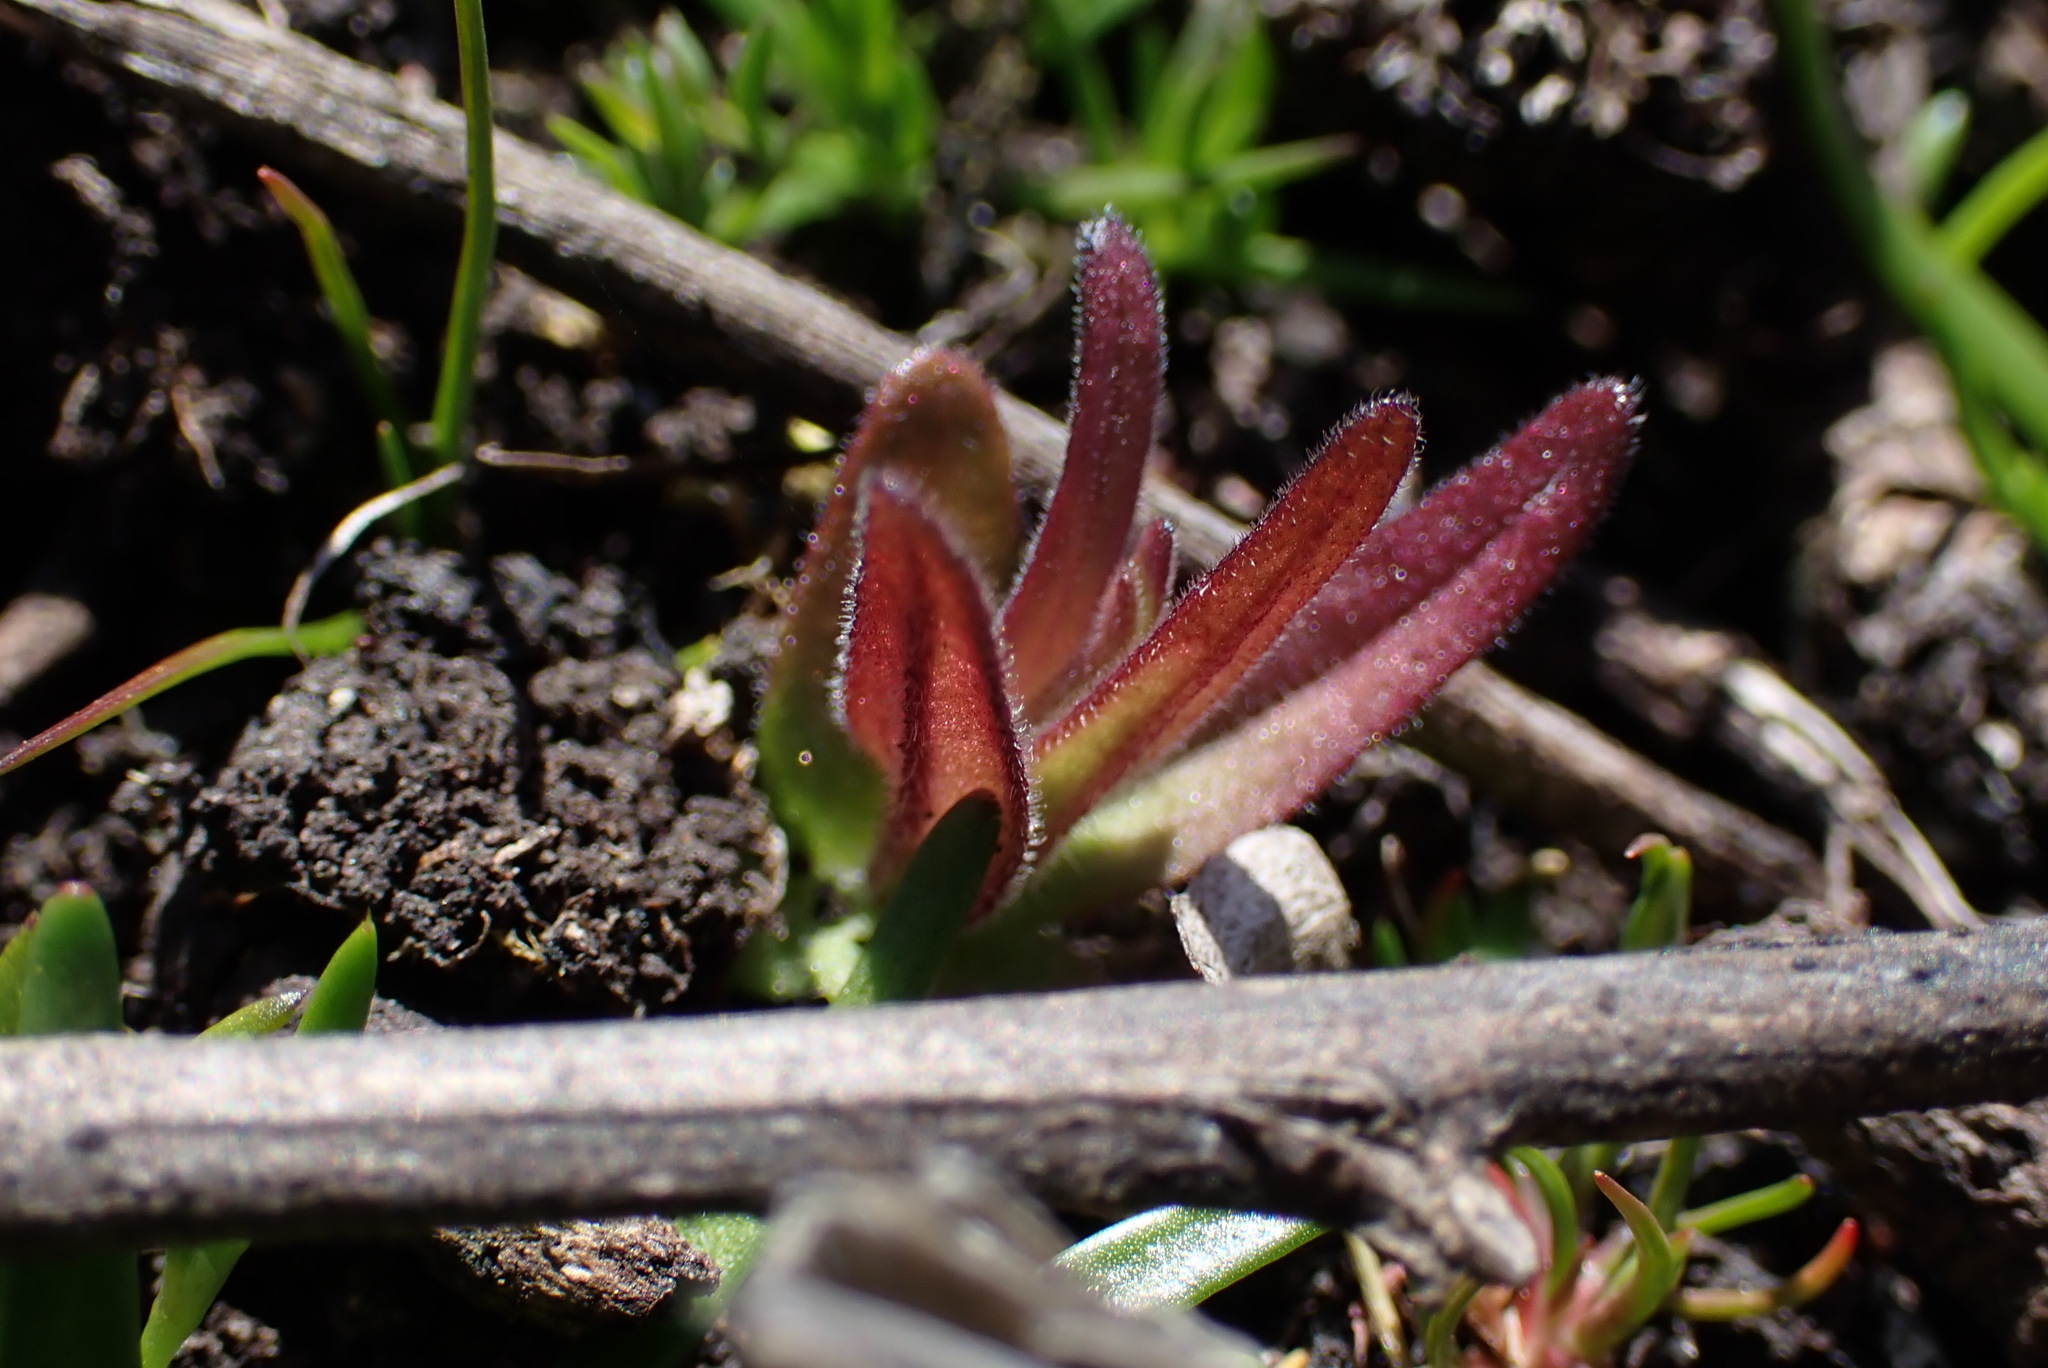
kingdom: Plantae
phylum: Tracheophyta
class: Magnoliopsida
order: Lamiales
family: Orobanchaceae
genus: Castilleja
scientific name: Castilleja victoriae
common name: Victoria paintbrush
